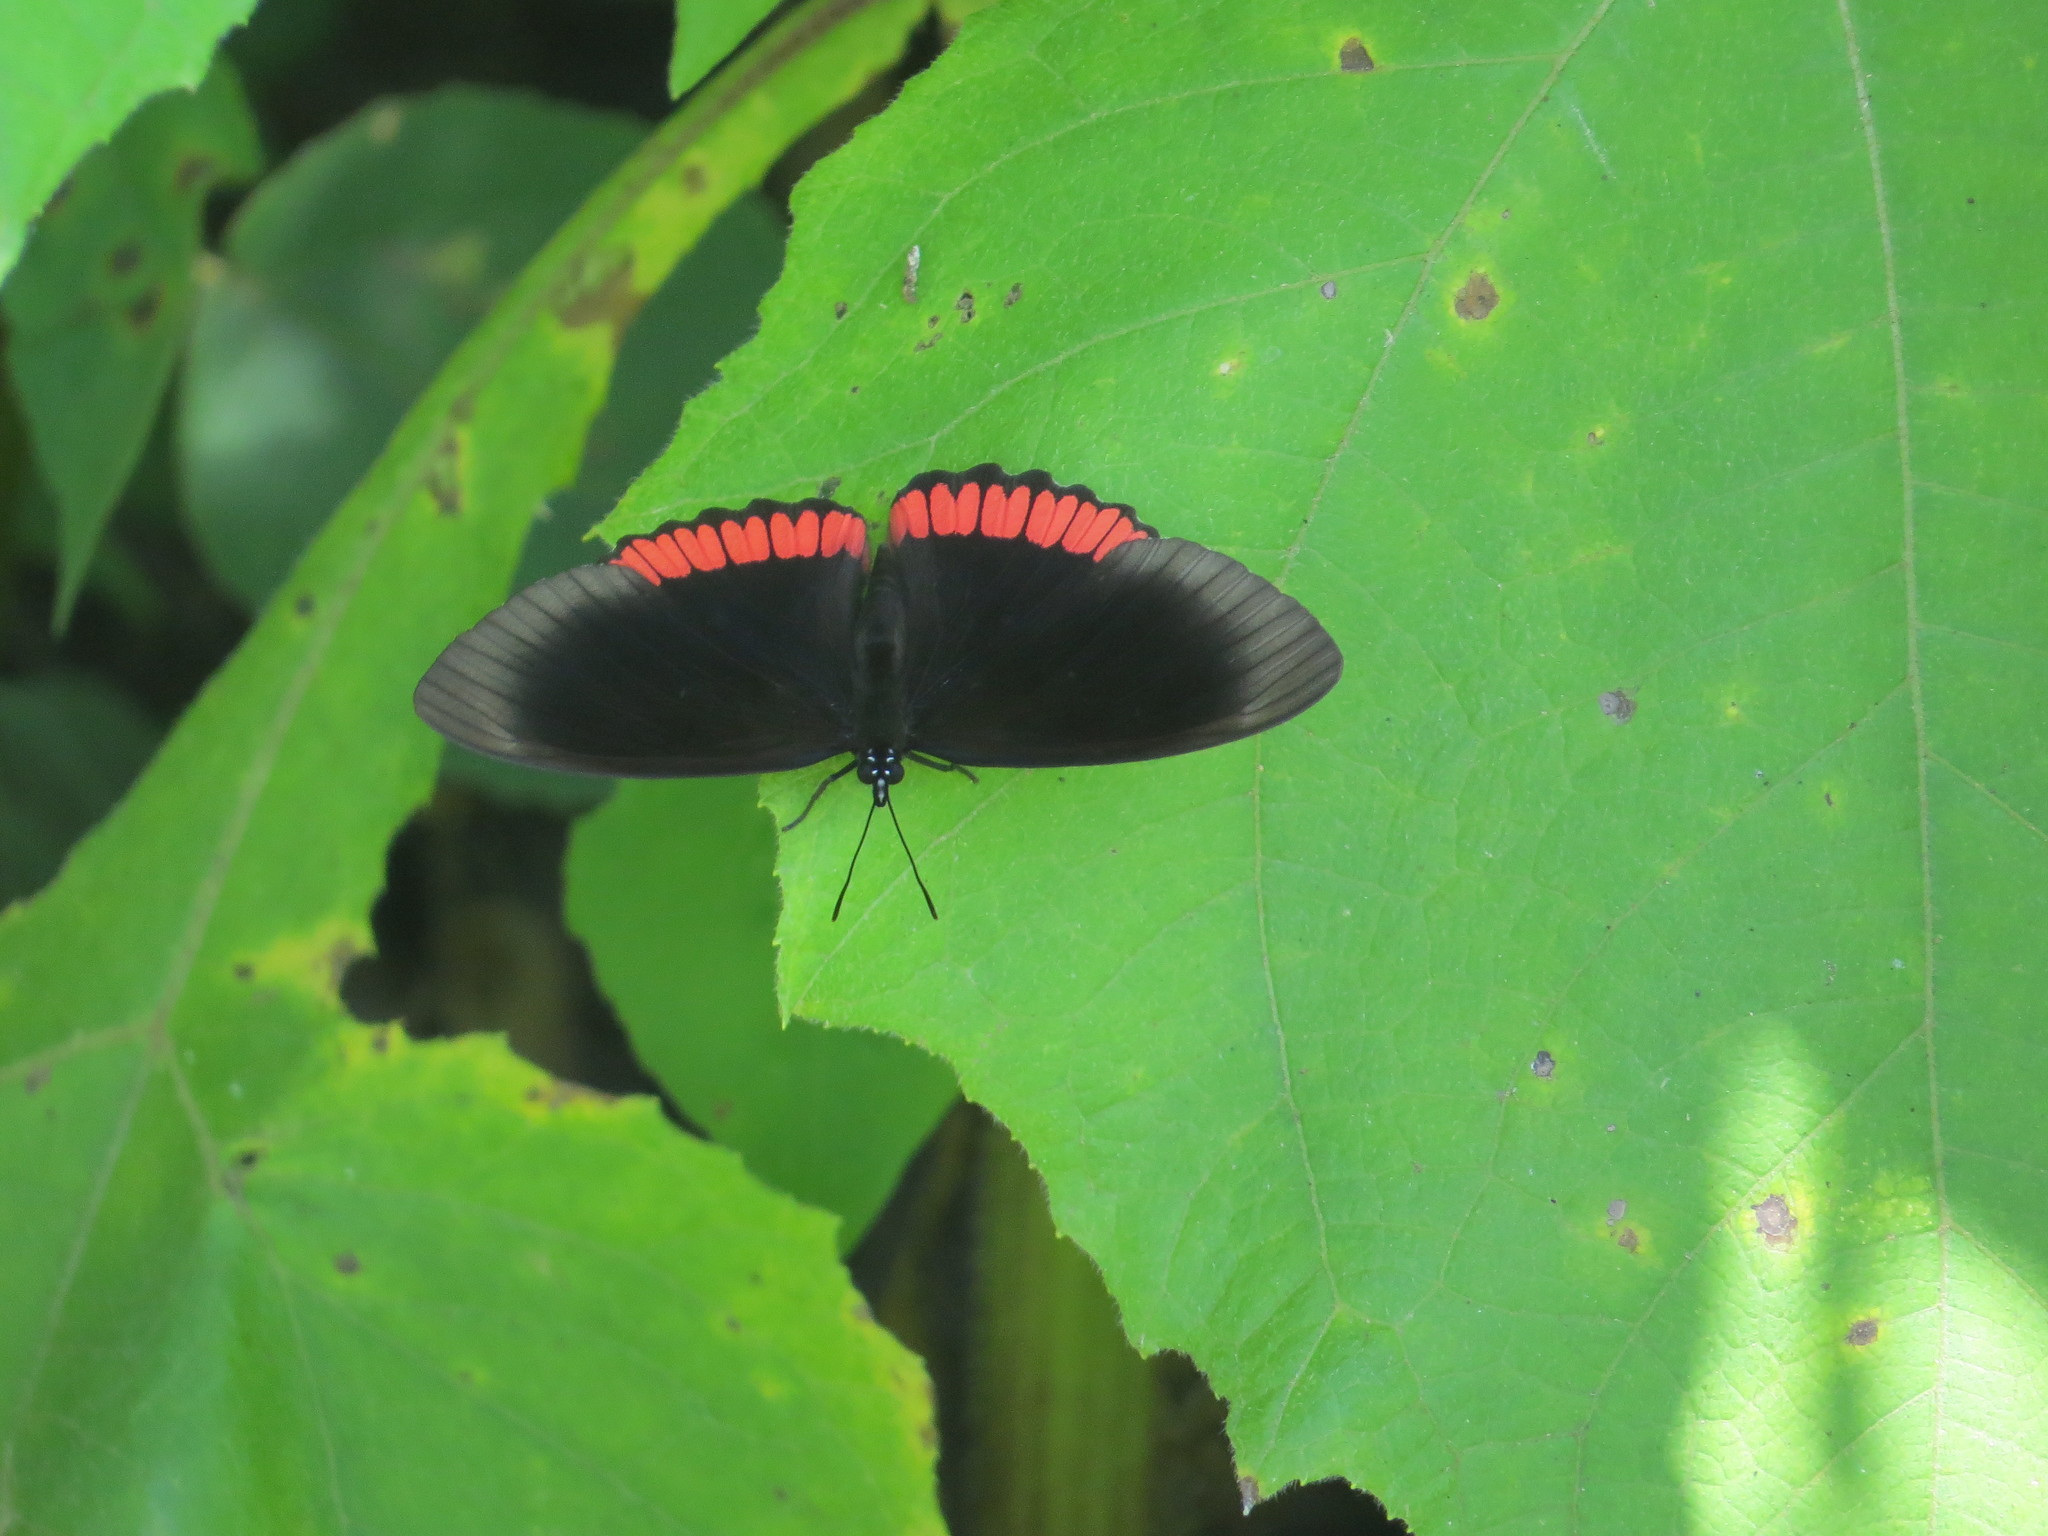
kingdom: Animalia
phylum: Arthropoda
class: Insecta
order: Lepidoptera
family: Sesiidae
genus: Sesia
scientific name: Sesia Biblis hyperia
